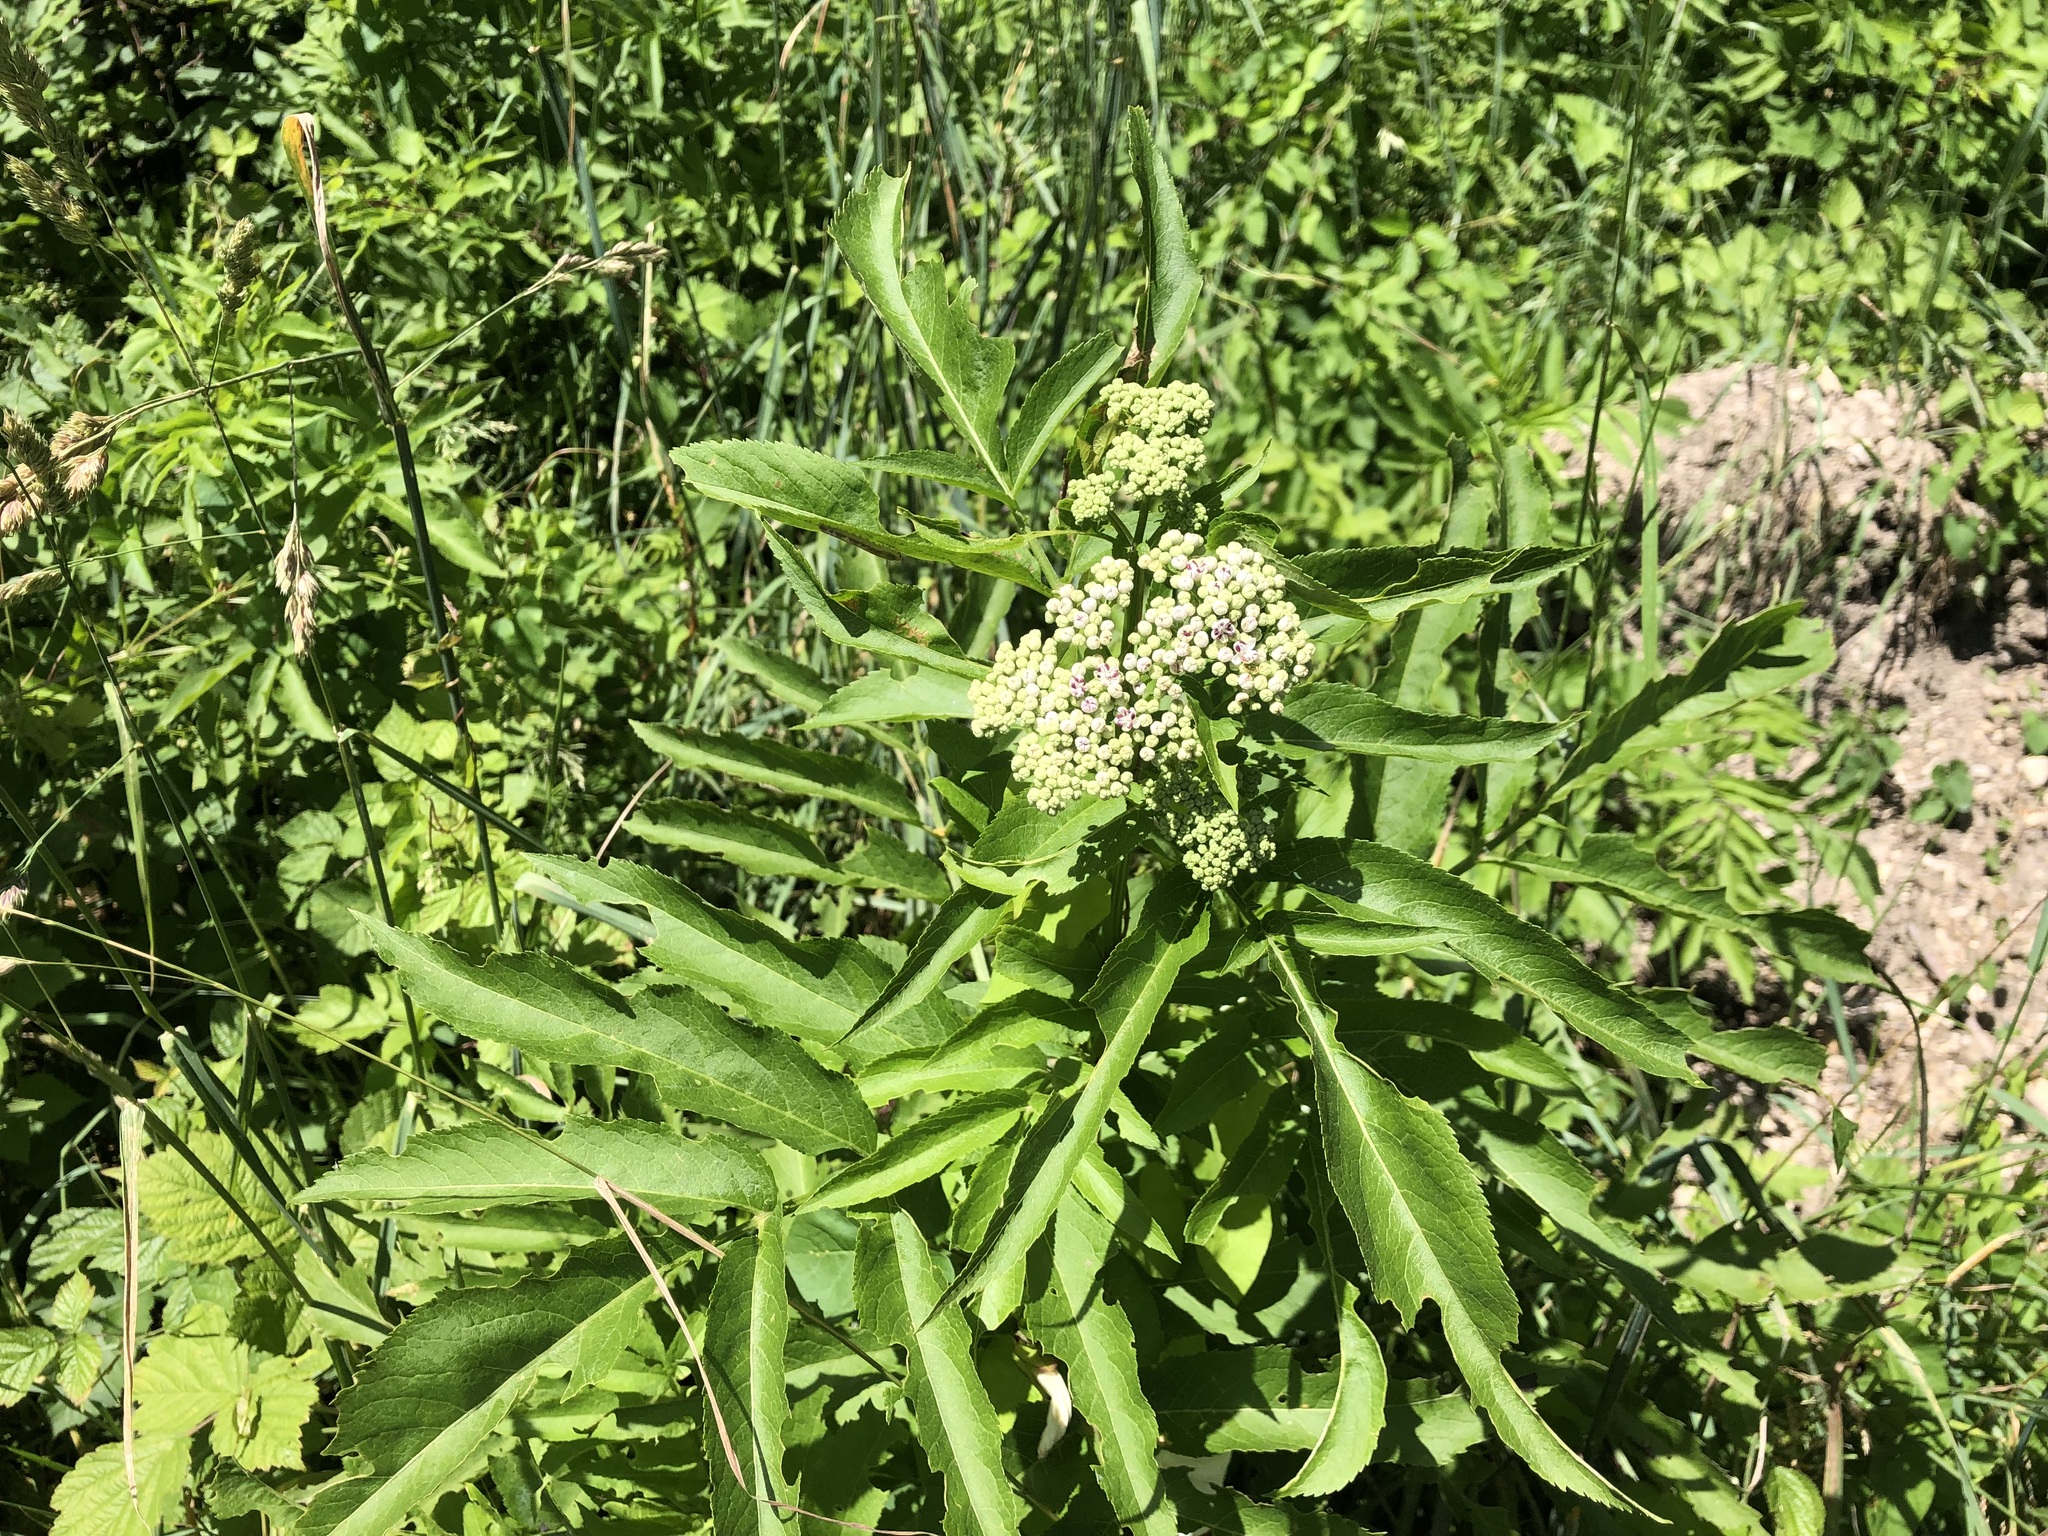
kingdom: Plantae
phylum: Tracheophyta
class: Magnoliopsida
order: Dipsacales
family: Viburnaceae
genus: Sambucus
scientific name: Sambucus ebulus
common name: Dwarf elder
